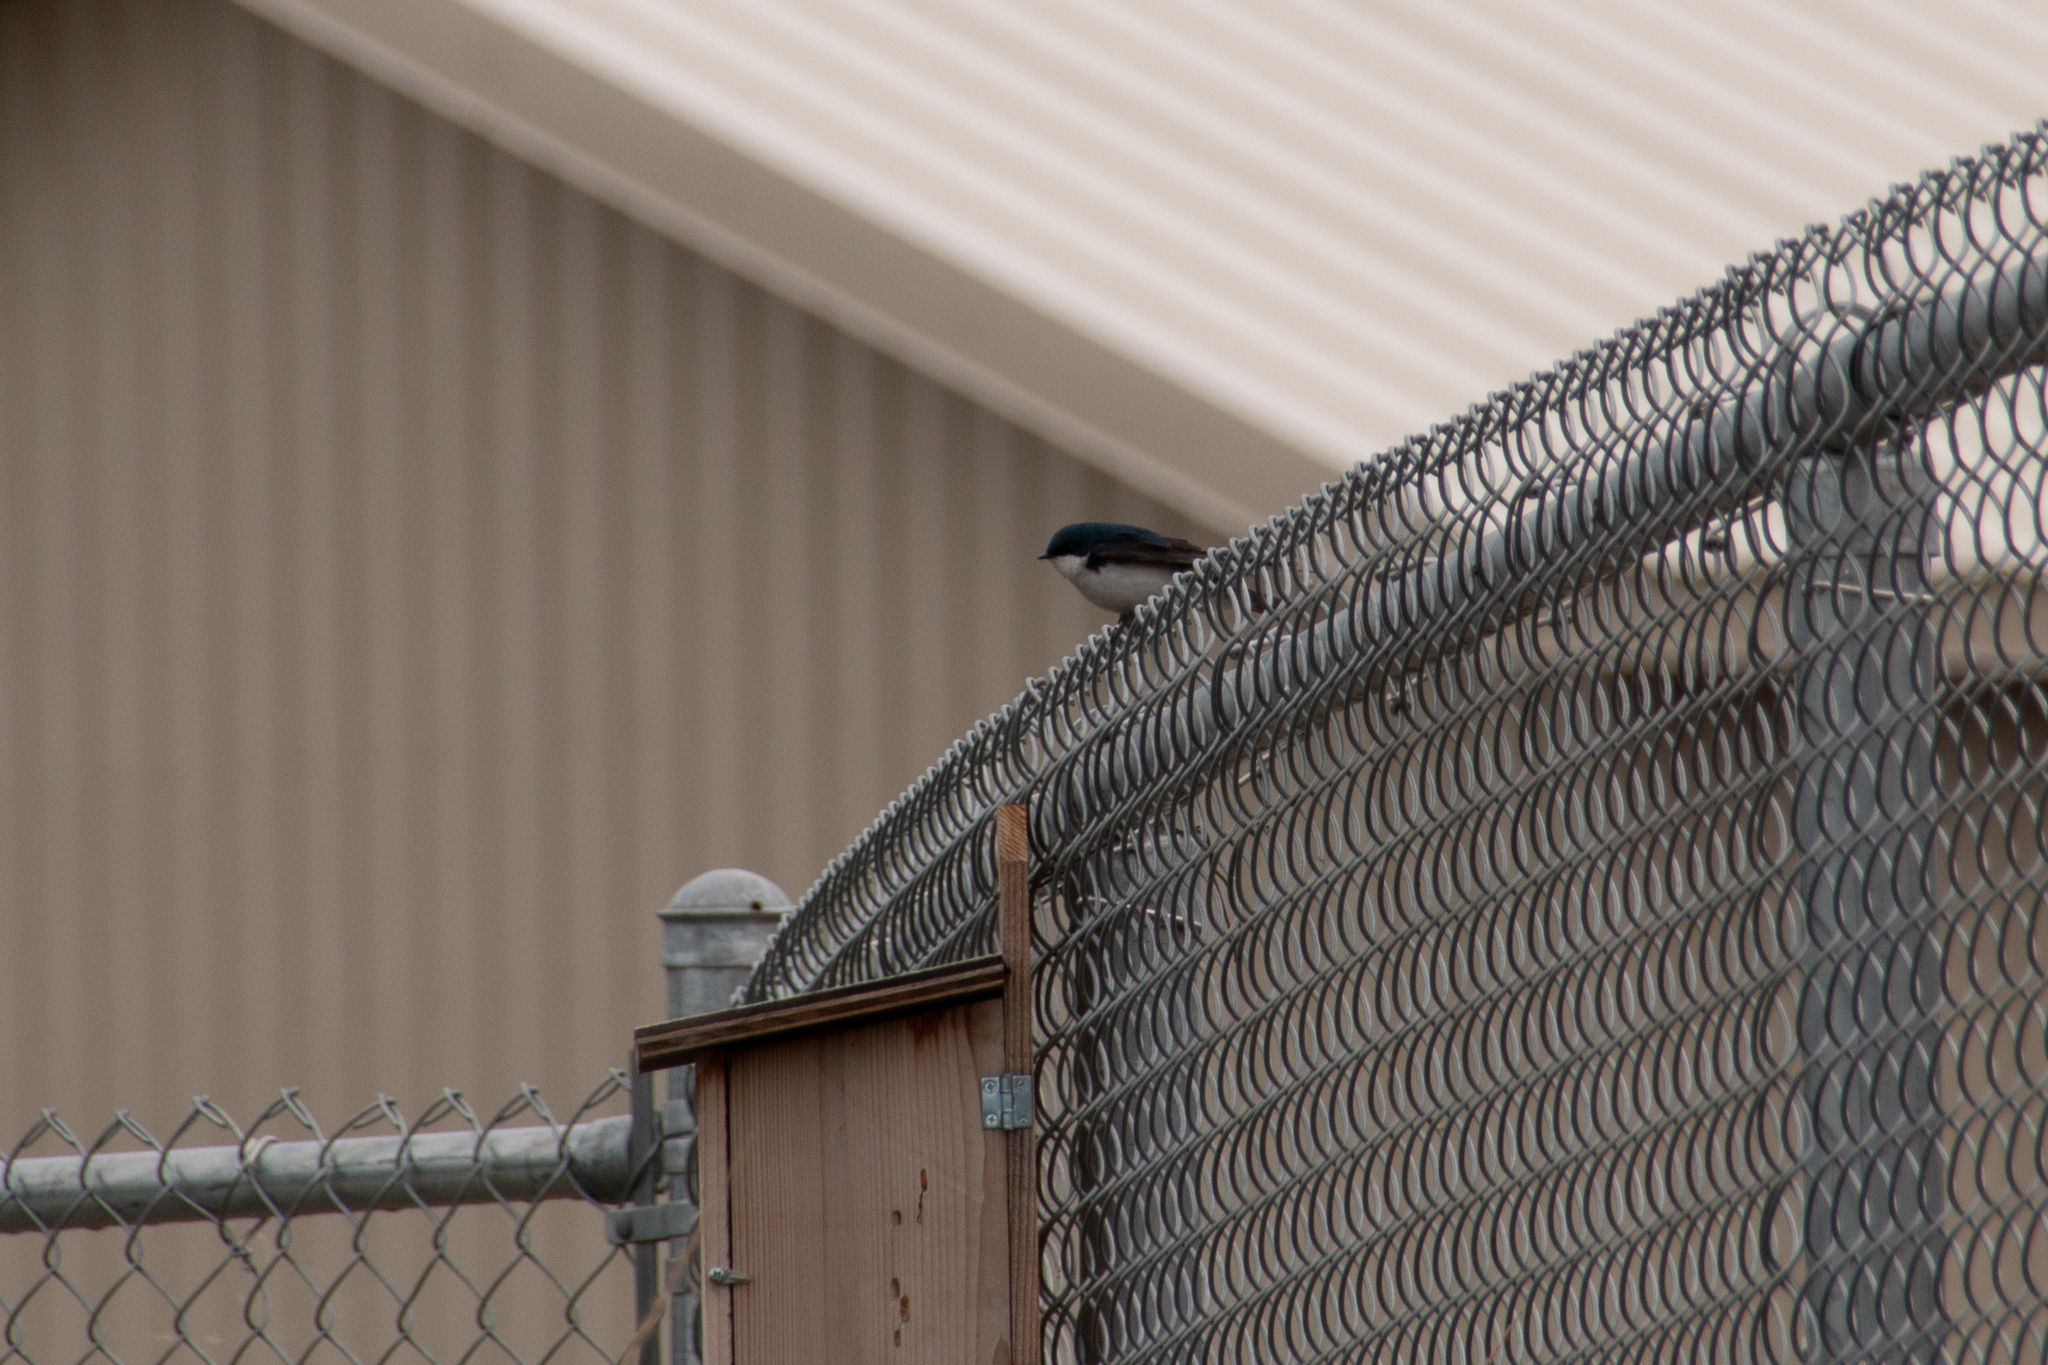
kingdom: Animalia
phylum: Chordata
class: Aves
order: Passeriformes
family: Hirundinidae
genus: Tachycineta
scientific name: Tachycineta bicolor
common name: Tree swallow
